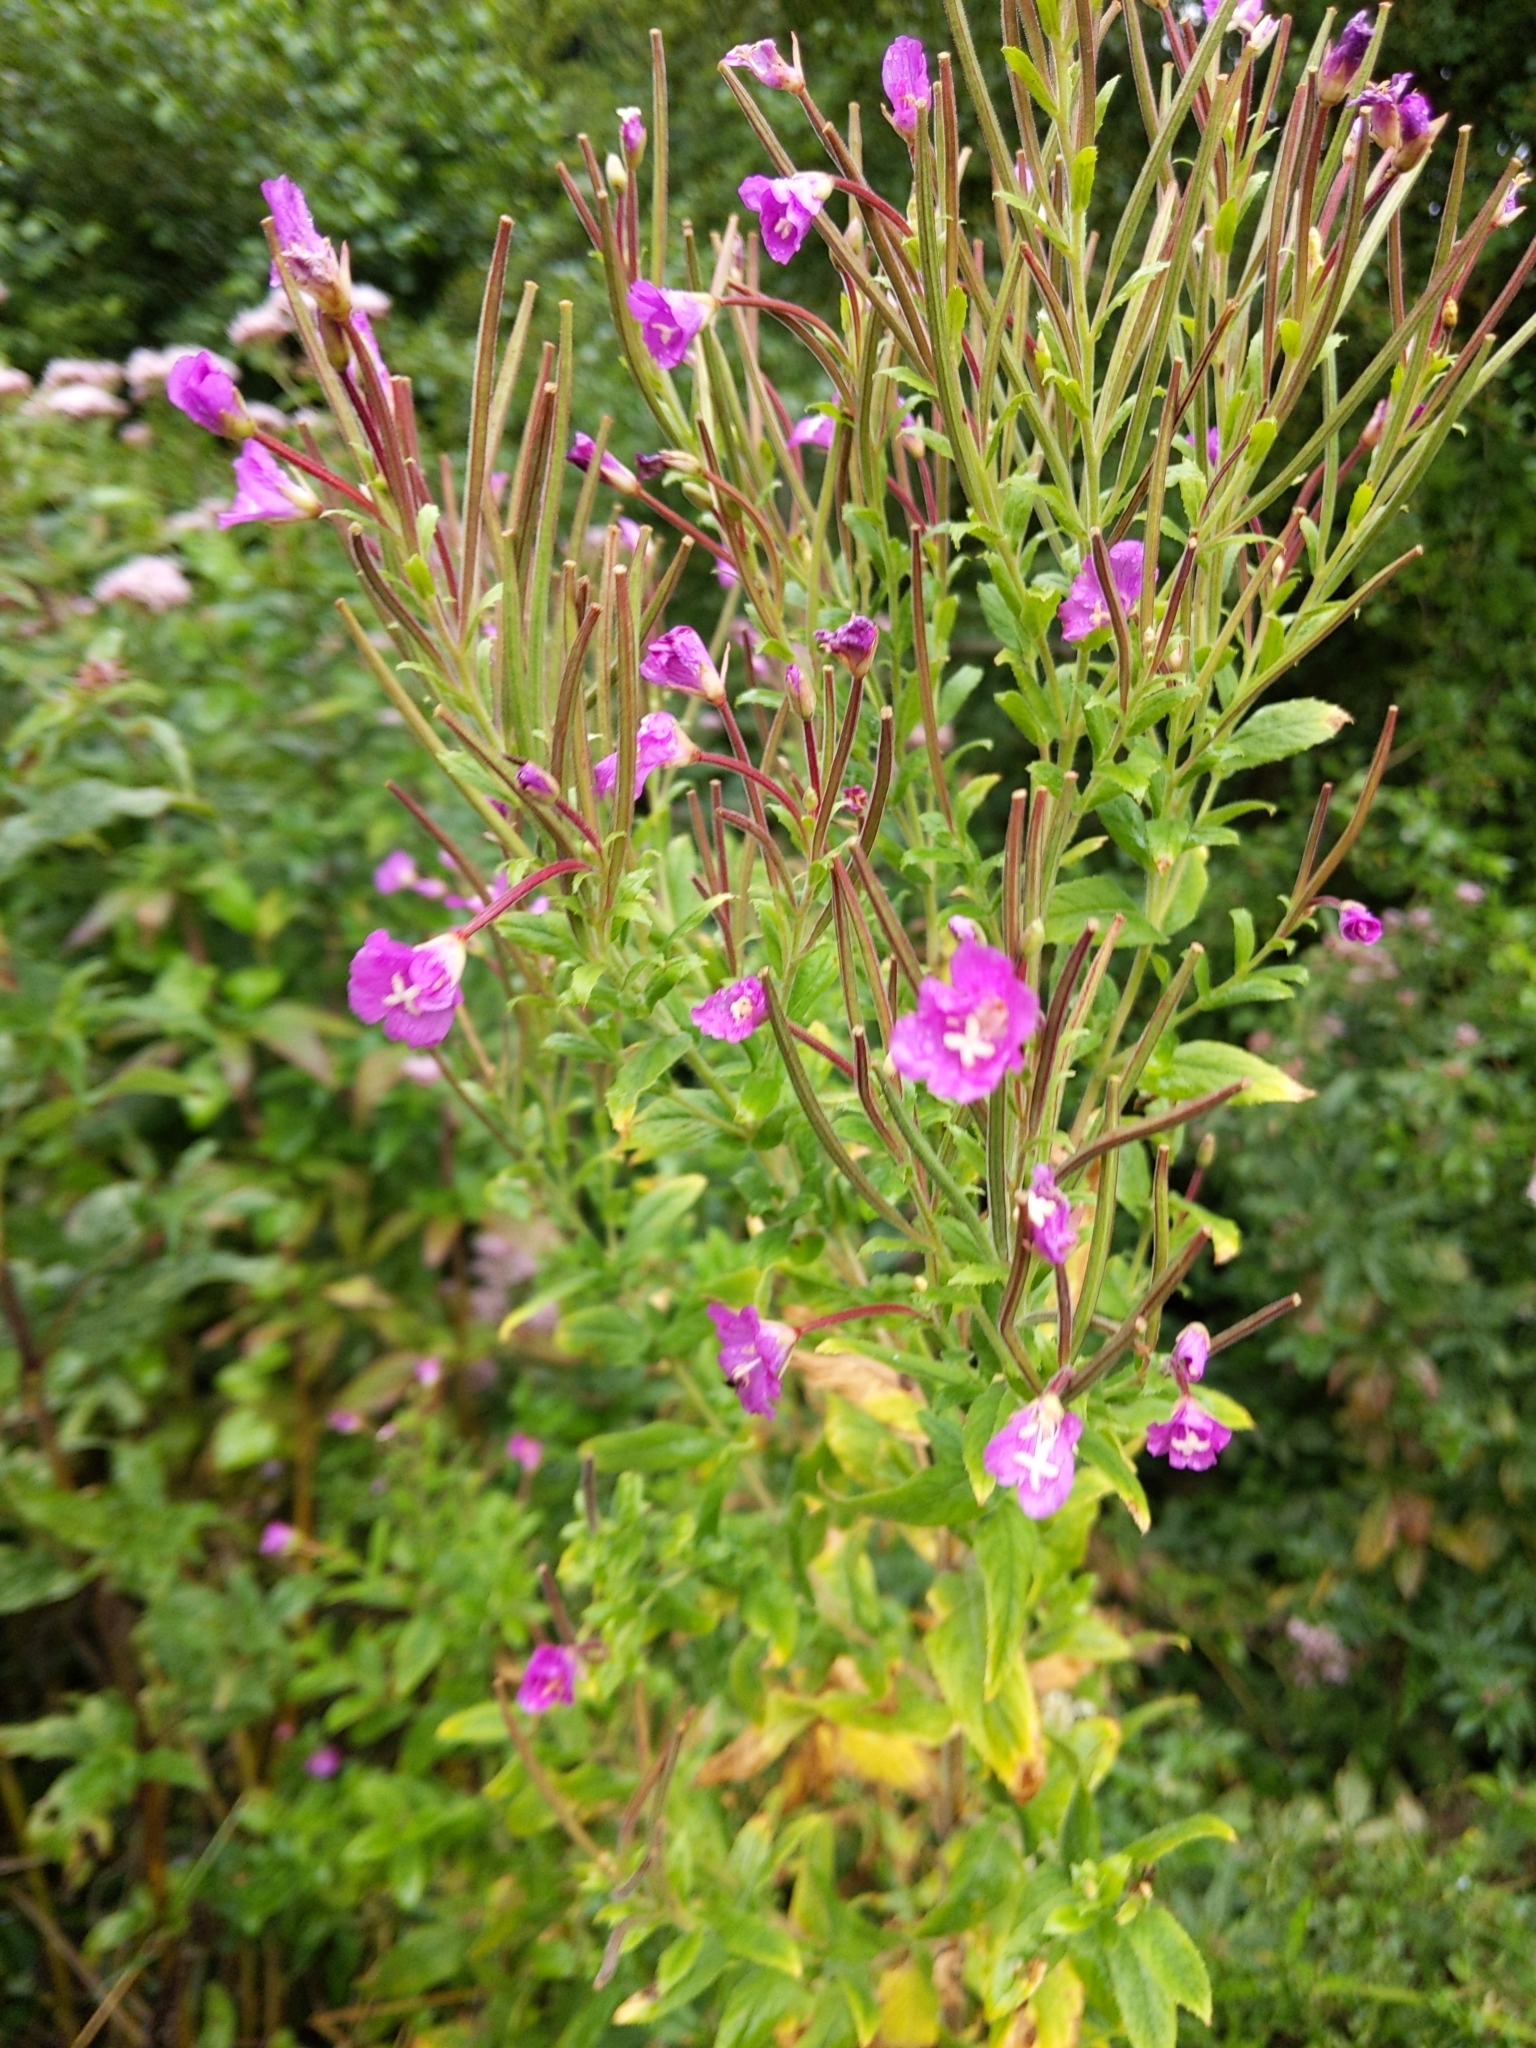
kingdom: Plantae
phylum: Tracheophyta
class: Magnoliopsida
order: Myrtales
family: Onagraceae
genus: Epilobium
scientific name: Epilobium hirsutum
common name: Great willowherb
